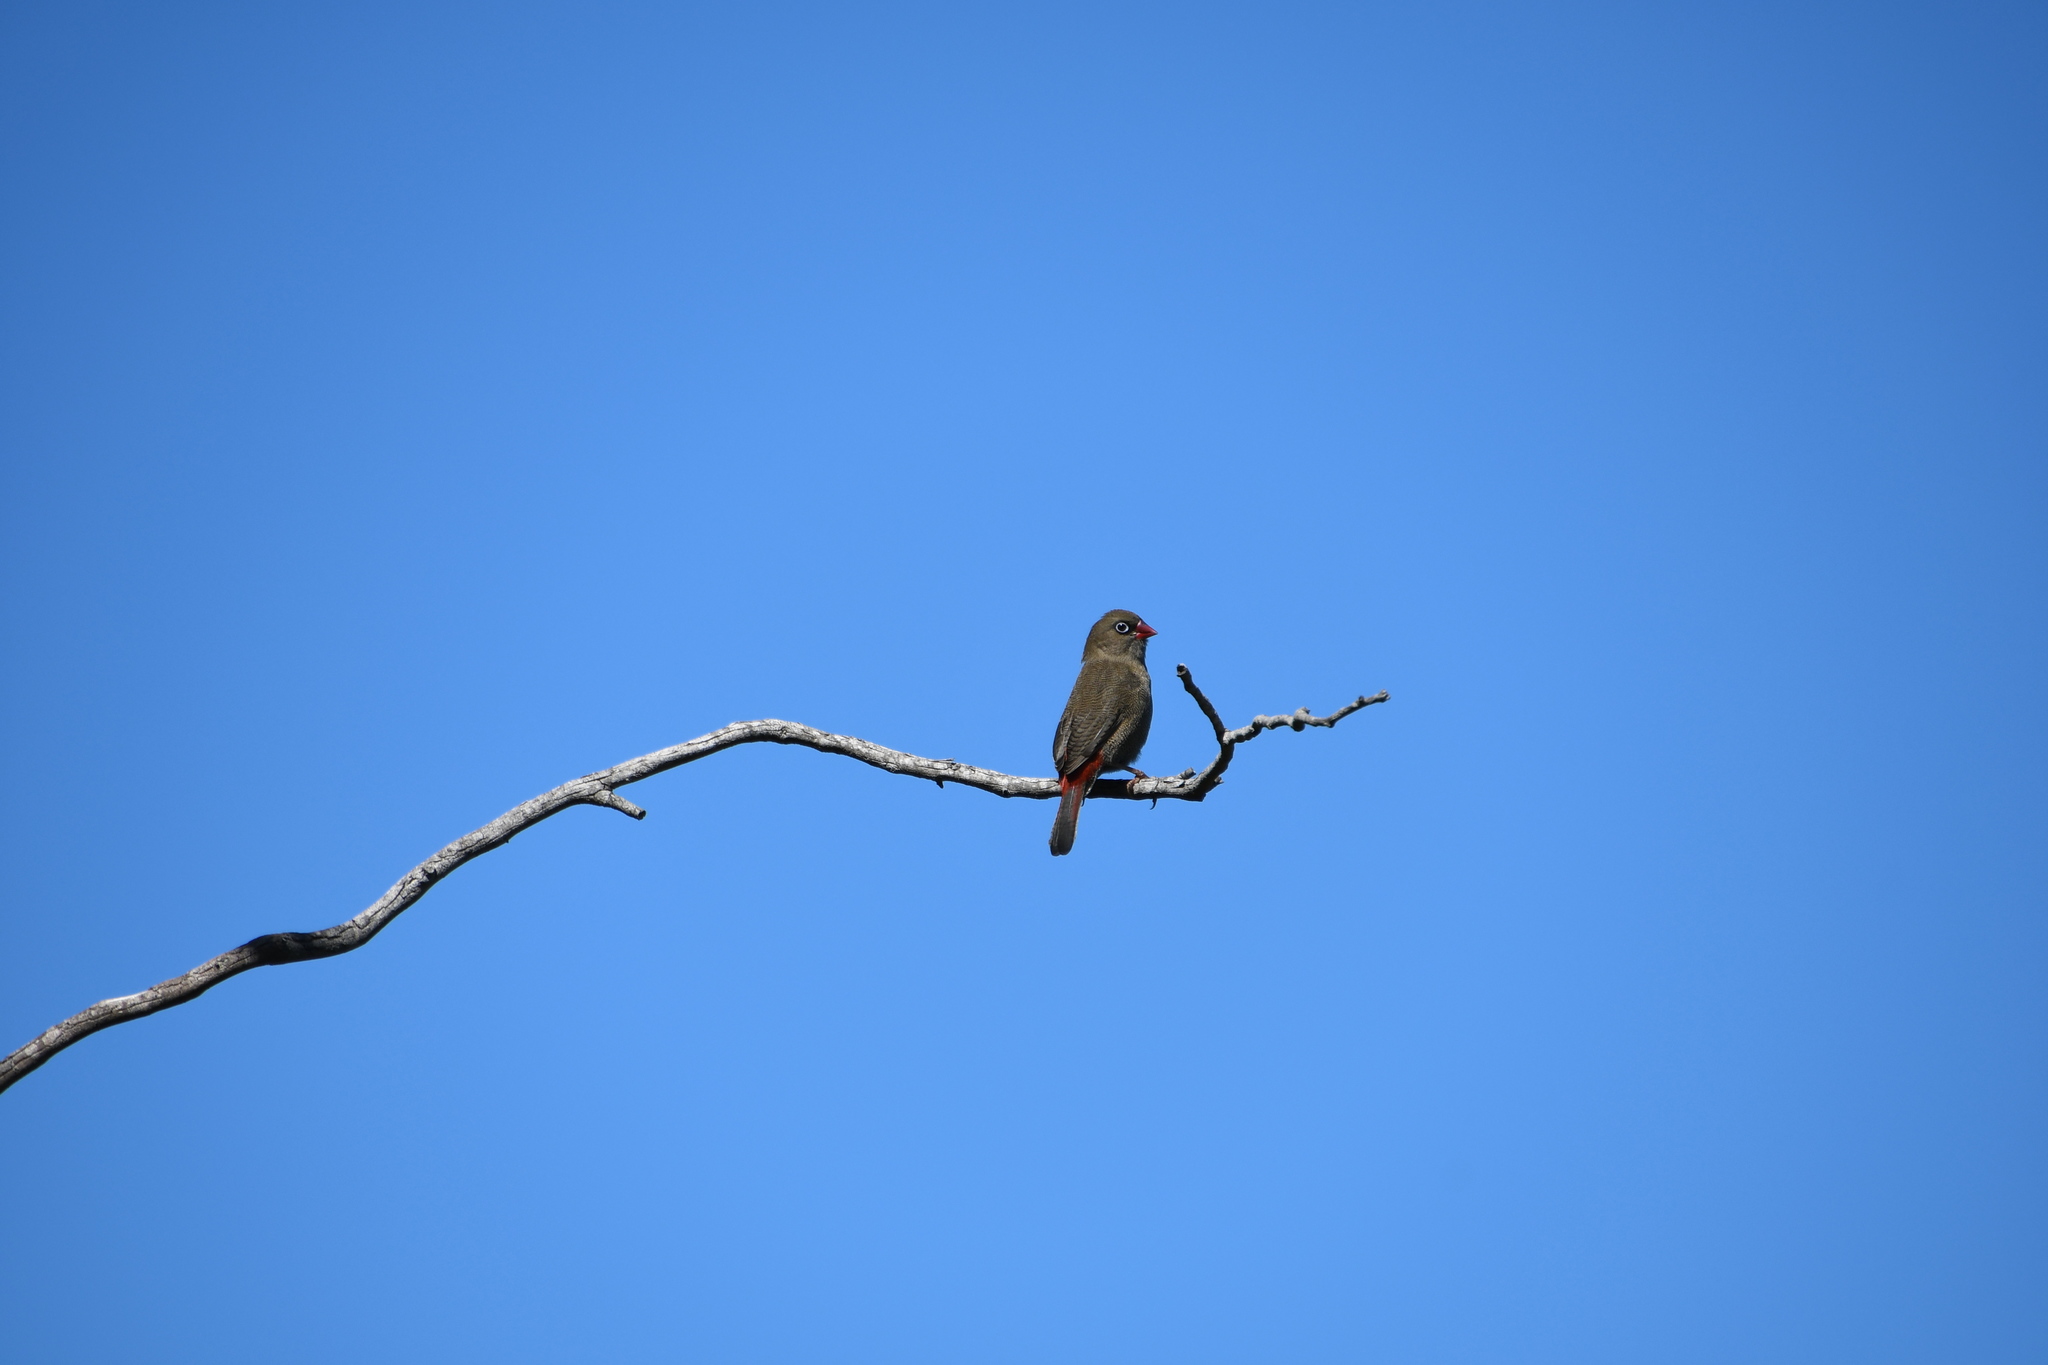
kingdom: Animalia
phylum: Chordata
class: Aves
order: Passeriformes
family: Estrildidae
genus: Stagonopleura
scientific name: Stagonopleura bella
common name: Beautiful firetail
